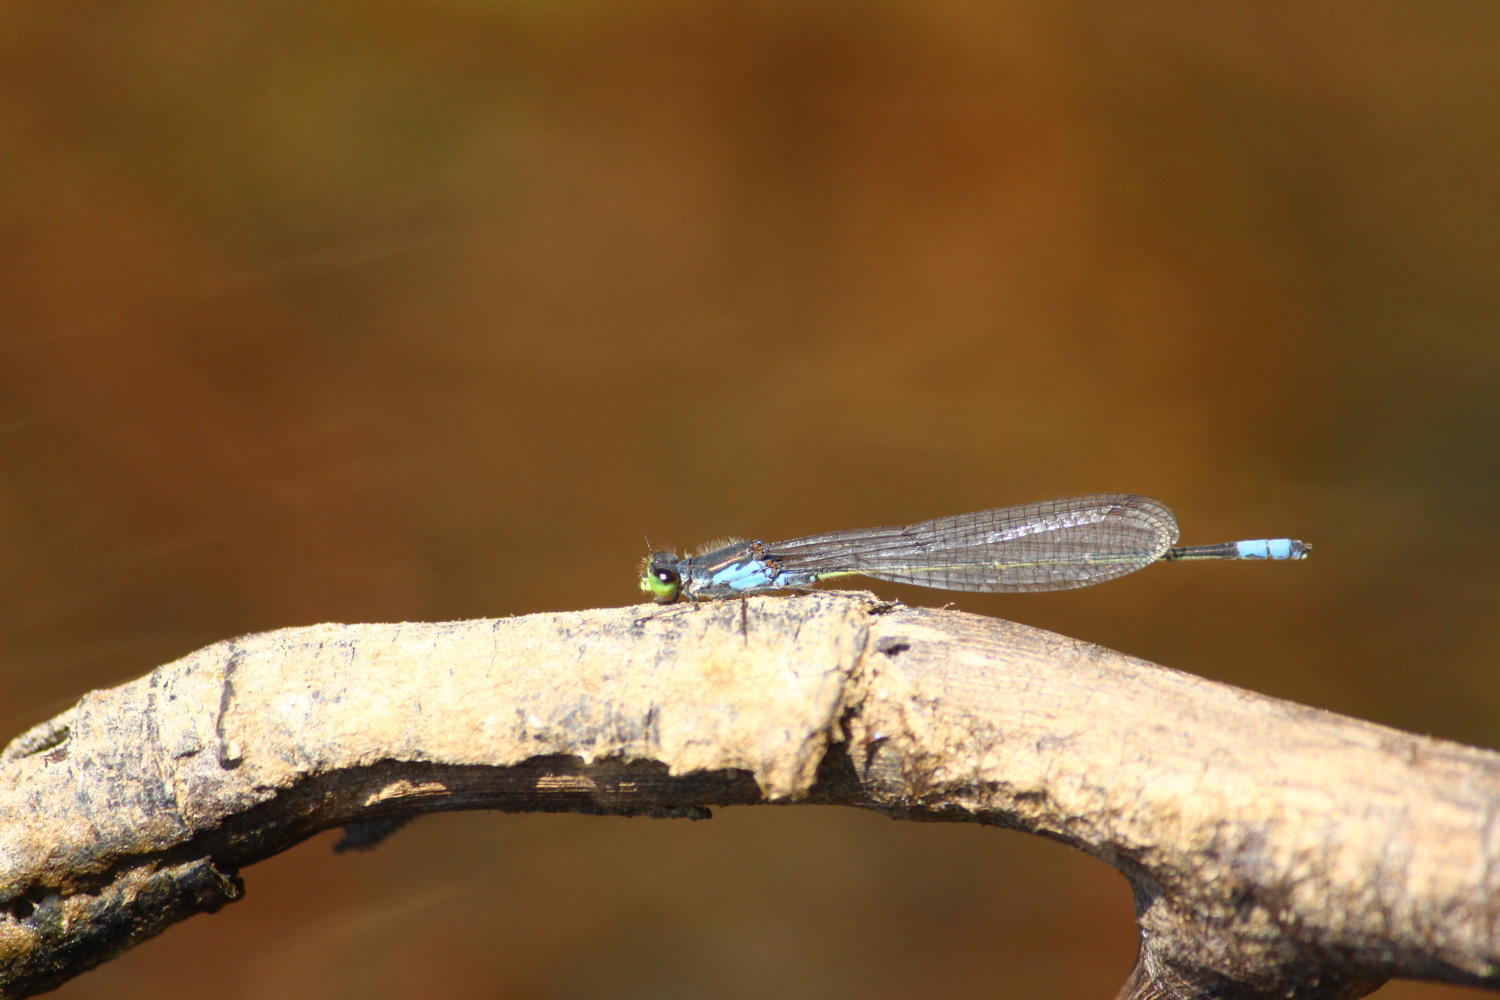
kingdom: Animalia
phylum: Arthropoda
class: Insecta
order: Odonata
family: Coenagrionidae
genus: Pseudagrion
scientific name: Pseudagrion deningi
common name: Dening's sprite
